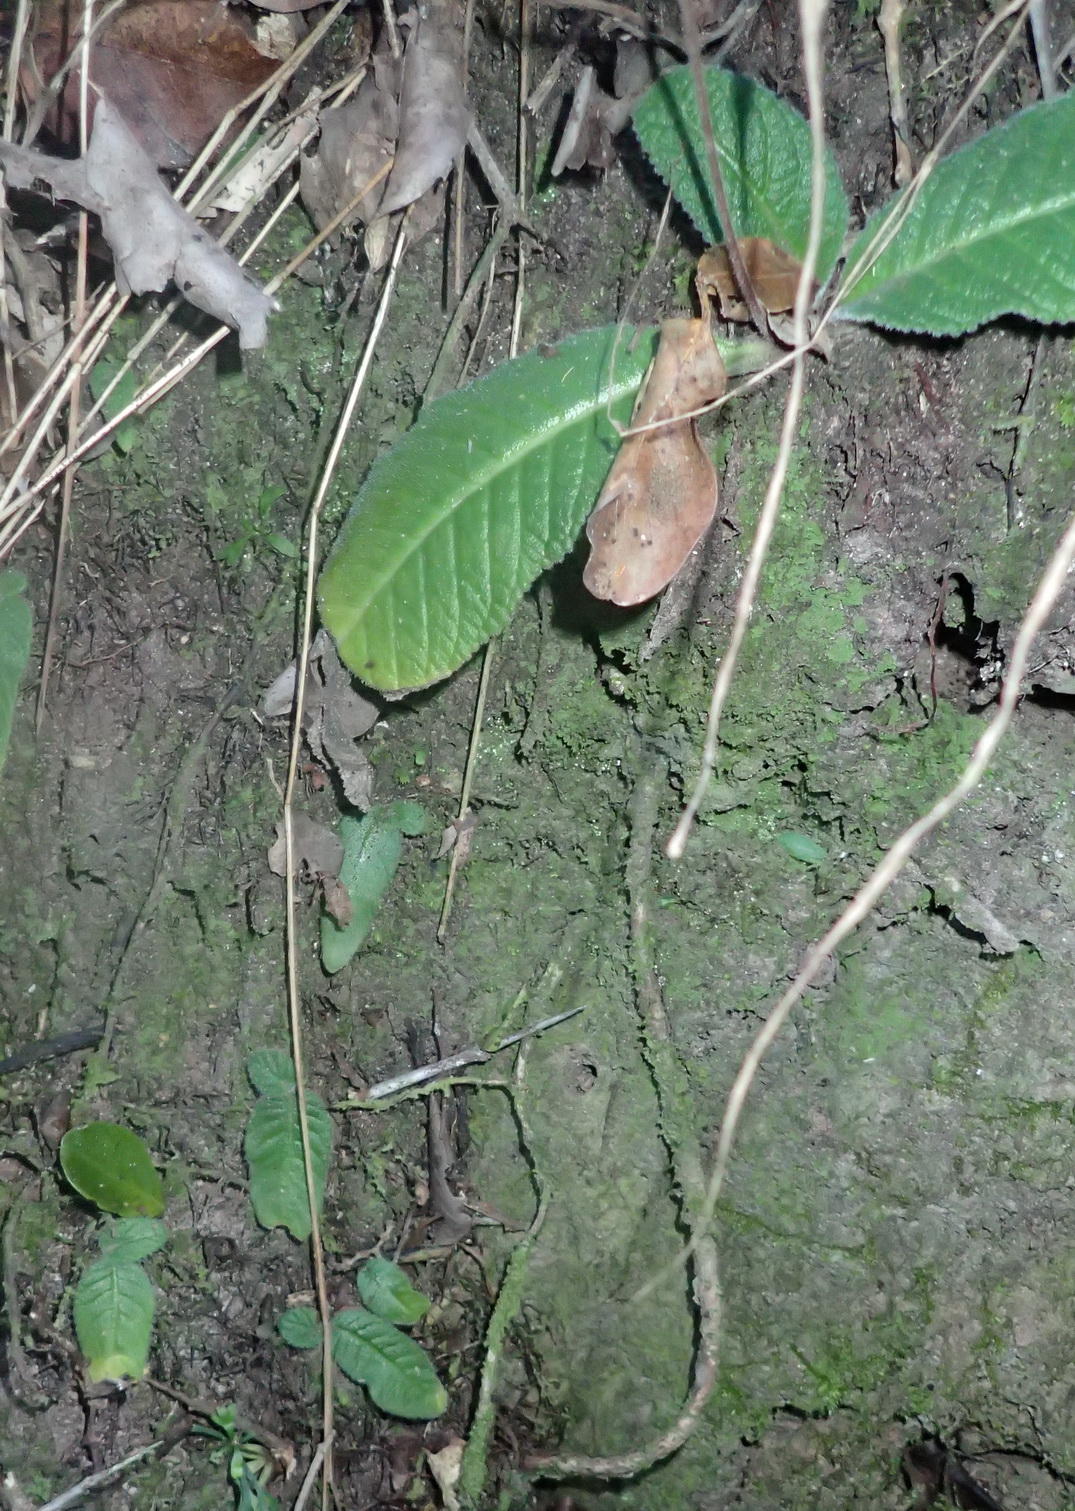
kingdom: Plantae
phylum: Tracheophyta
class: Magnoliopsida
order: Lamiales
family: Gesneriaceae
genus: Streptocarpus
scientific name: Streptocarpus rexii
